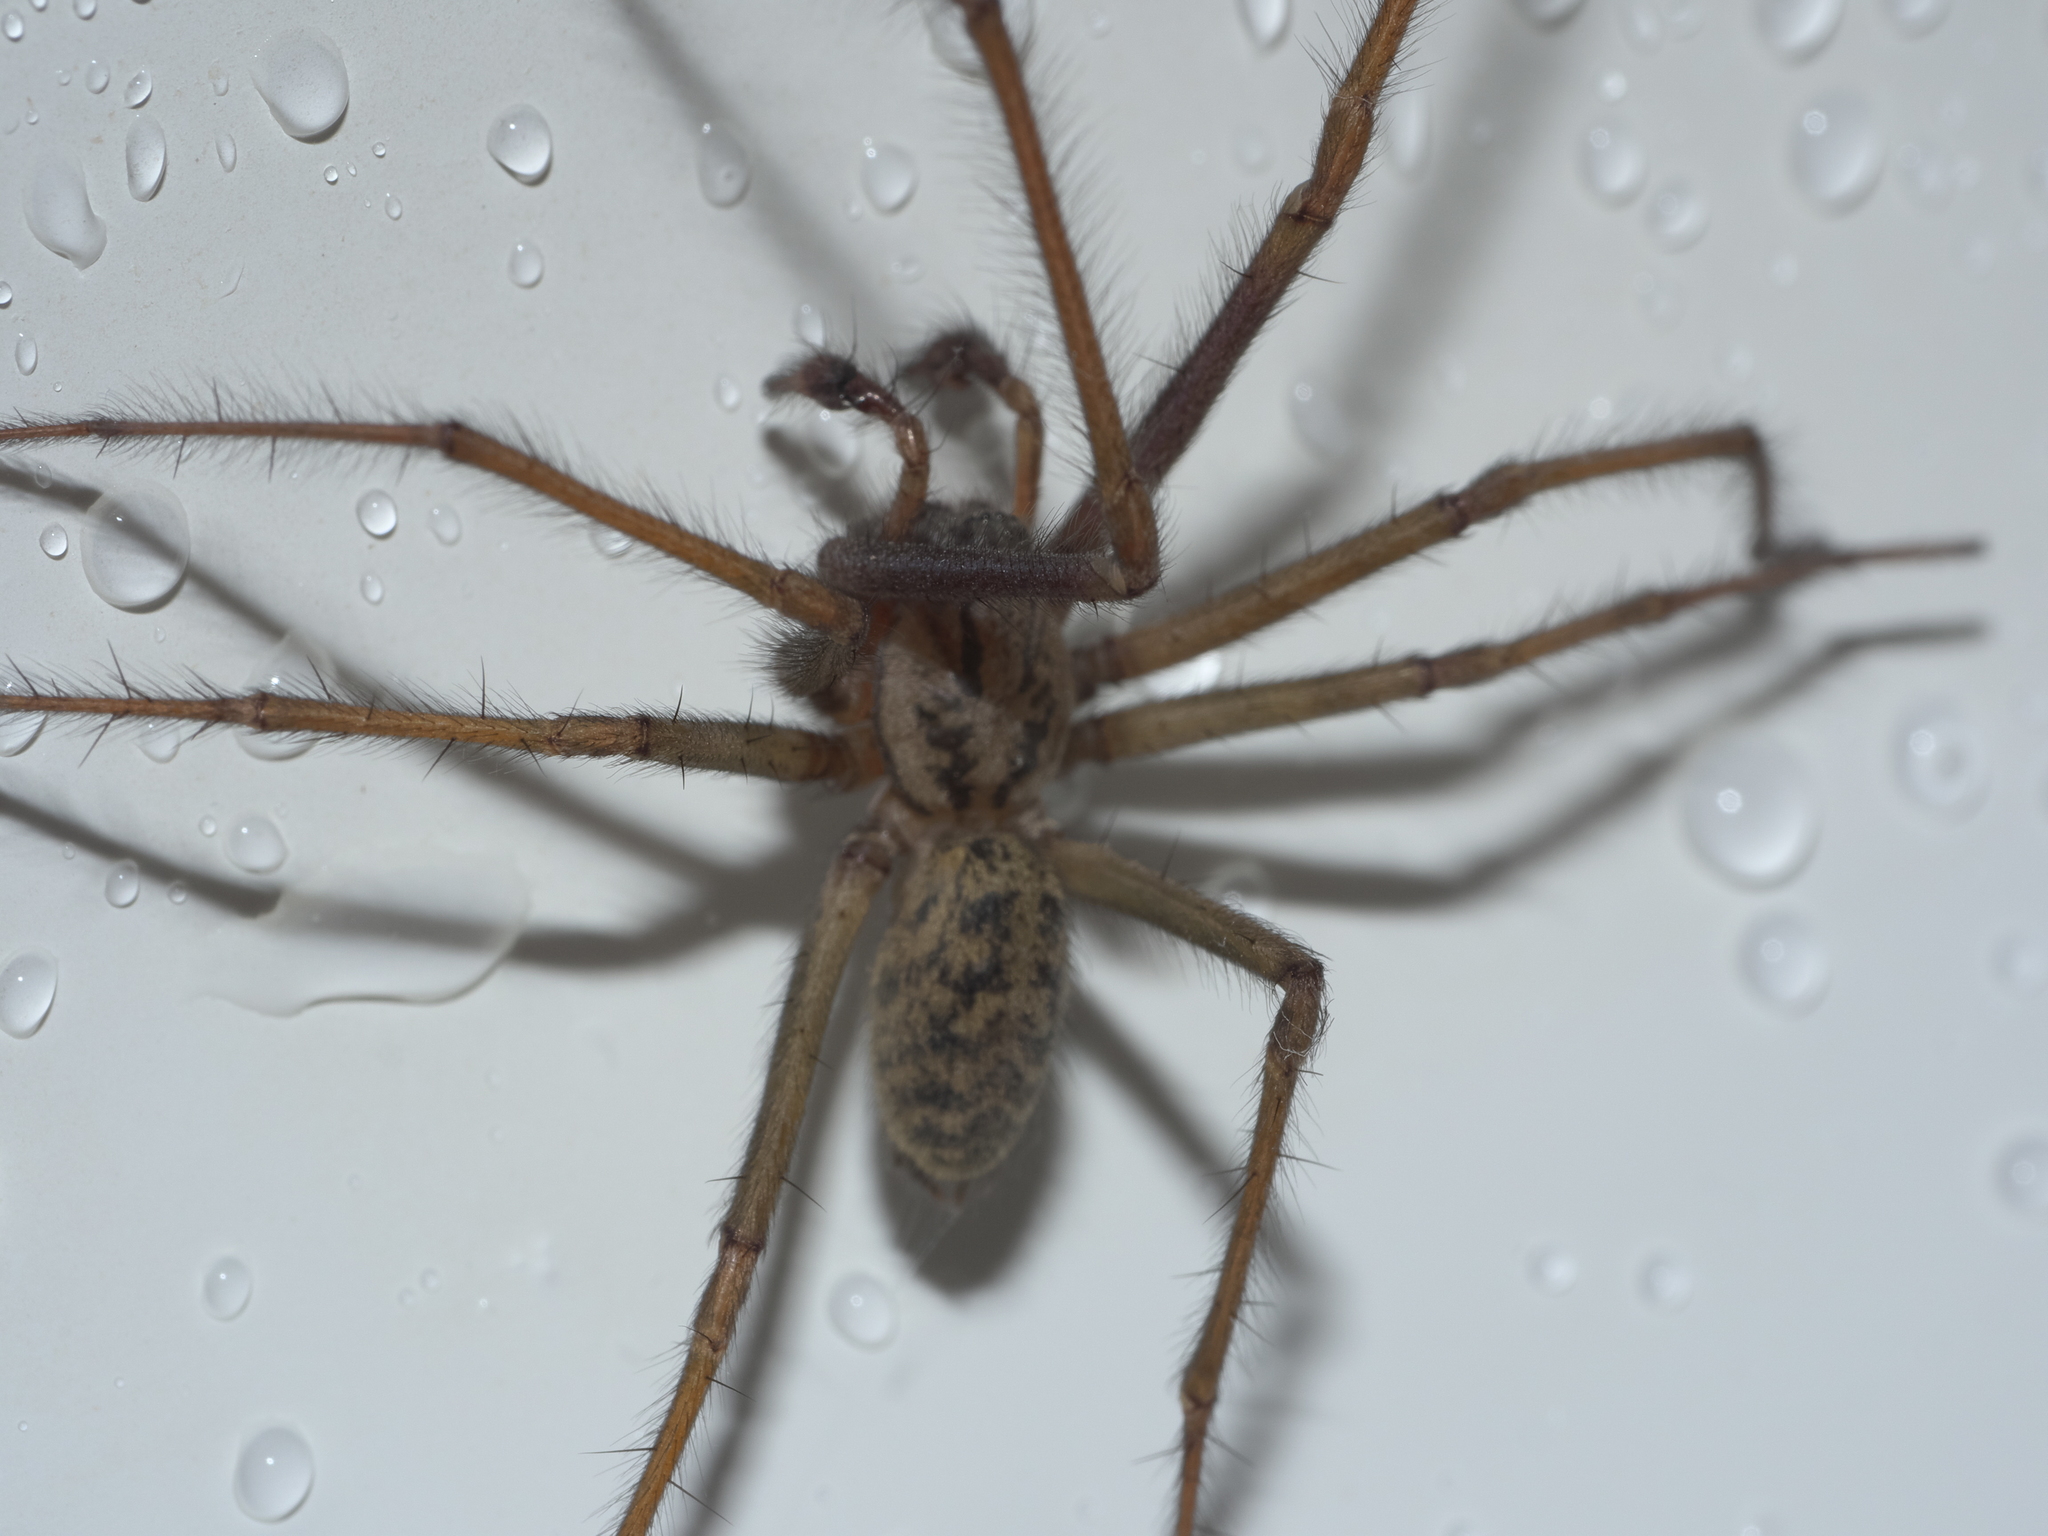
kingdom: Animalia
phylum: Arthropoda
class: Arachnida
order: Araneae
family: Agelenidae
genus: Eratigena
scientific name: Eratigena duellica
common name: Giant house spider
